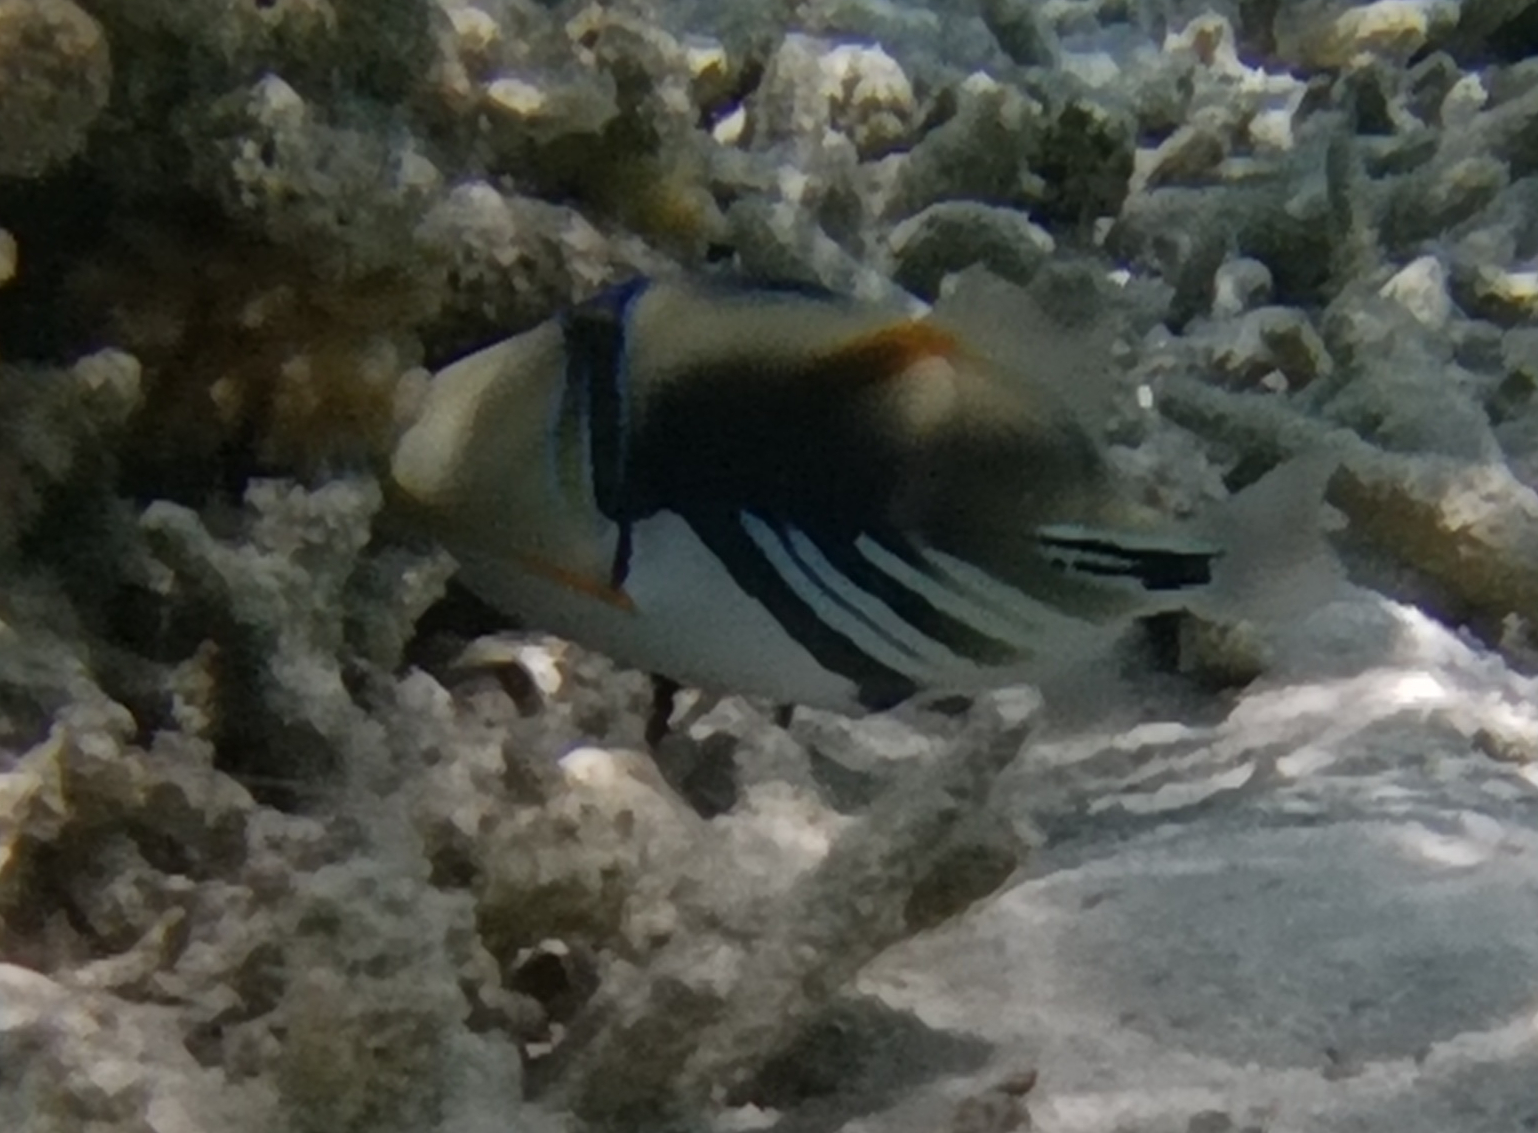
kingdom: Animalia
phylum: Chordata
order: Tetraodontiformes
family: Balistidae
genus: Rhinecanthus
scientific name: Rhinecanthus aculeatus
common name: White-banded triggerfish
